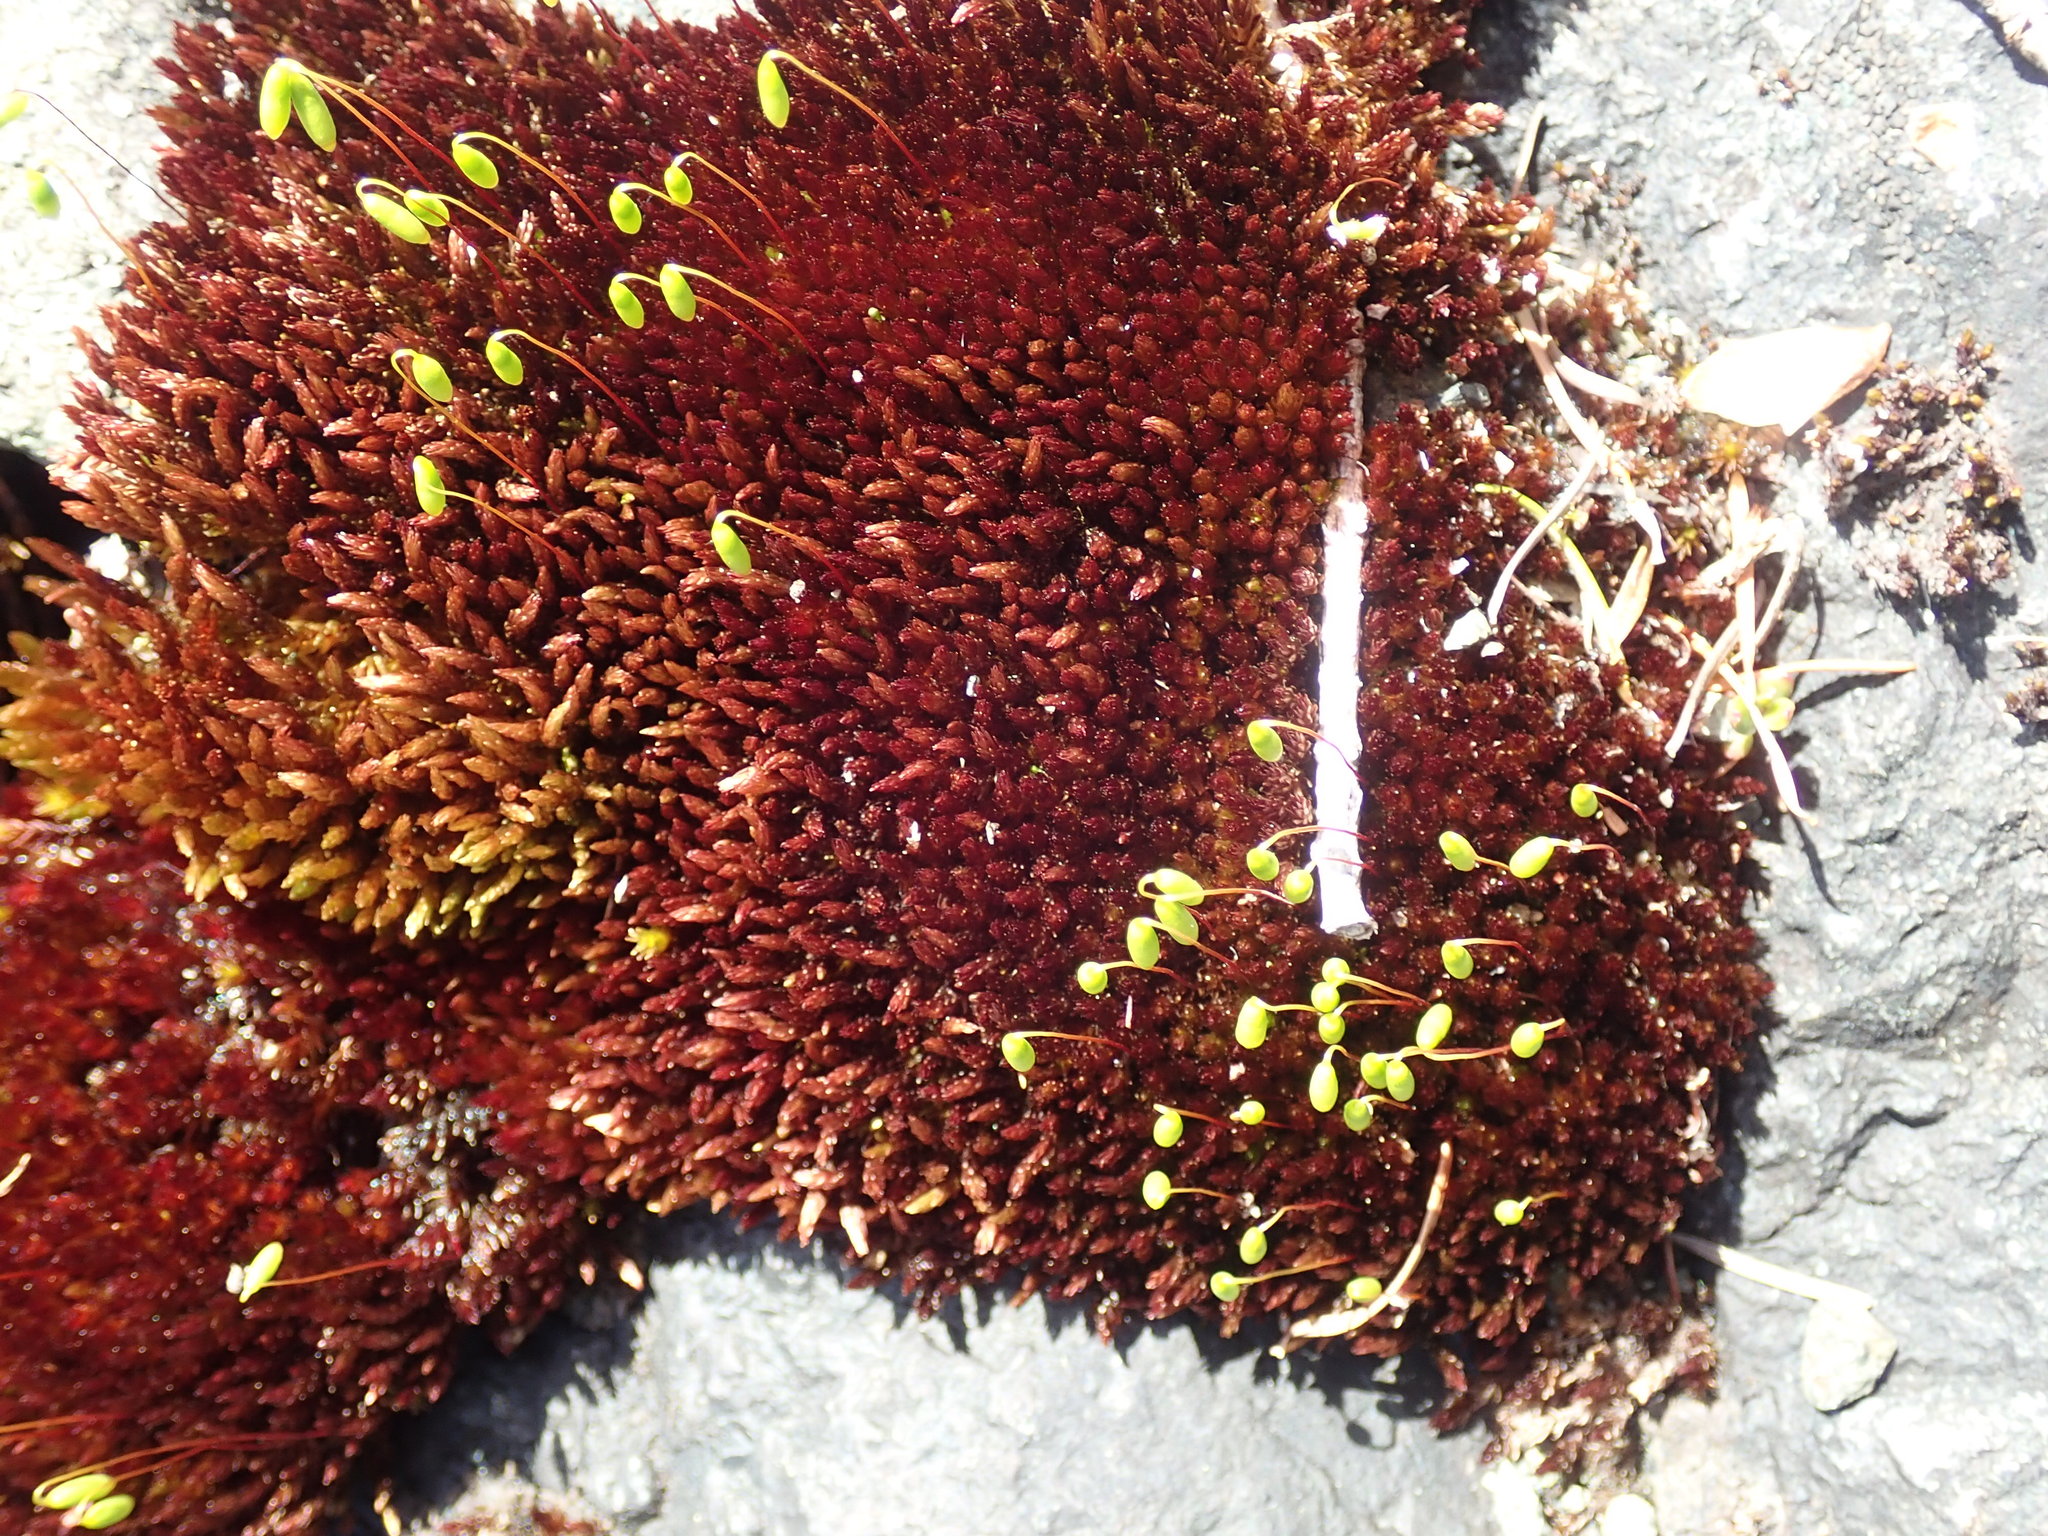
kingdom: Plantae
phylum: Bryophyta
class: Bryopsida
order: Bryales
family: Bryaceae
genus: Imbribryum
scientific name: Imbribryum miniatum
